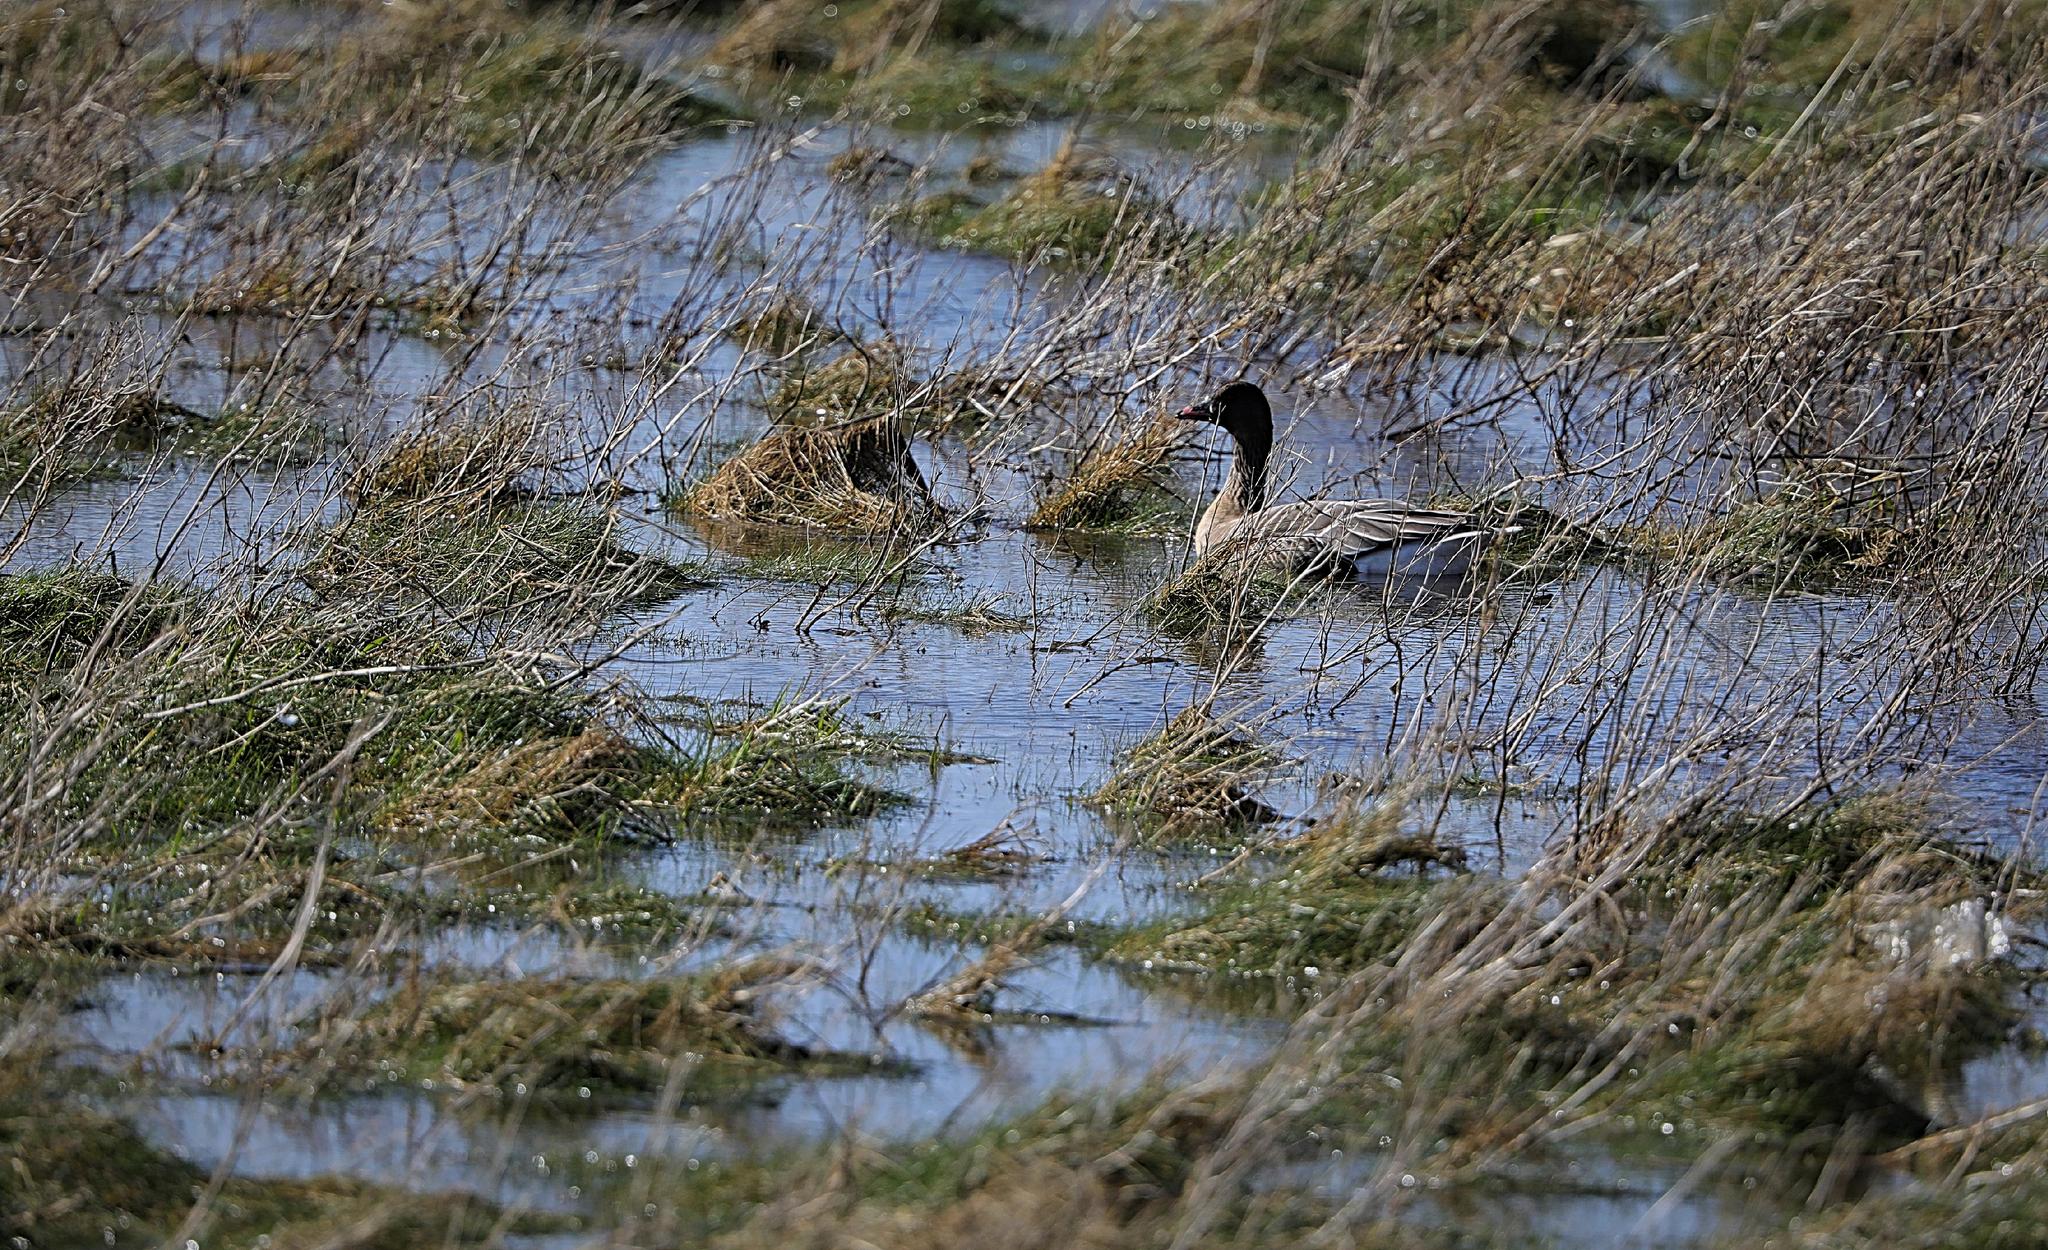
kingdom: Animalia
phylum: Chordata
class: Aves
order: Anseriformes
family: Anatidae
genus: Anser
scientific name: Anser brachyrhynchus
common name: Pink-footed goose
